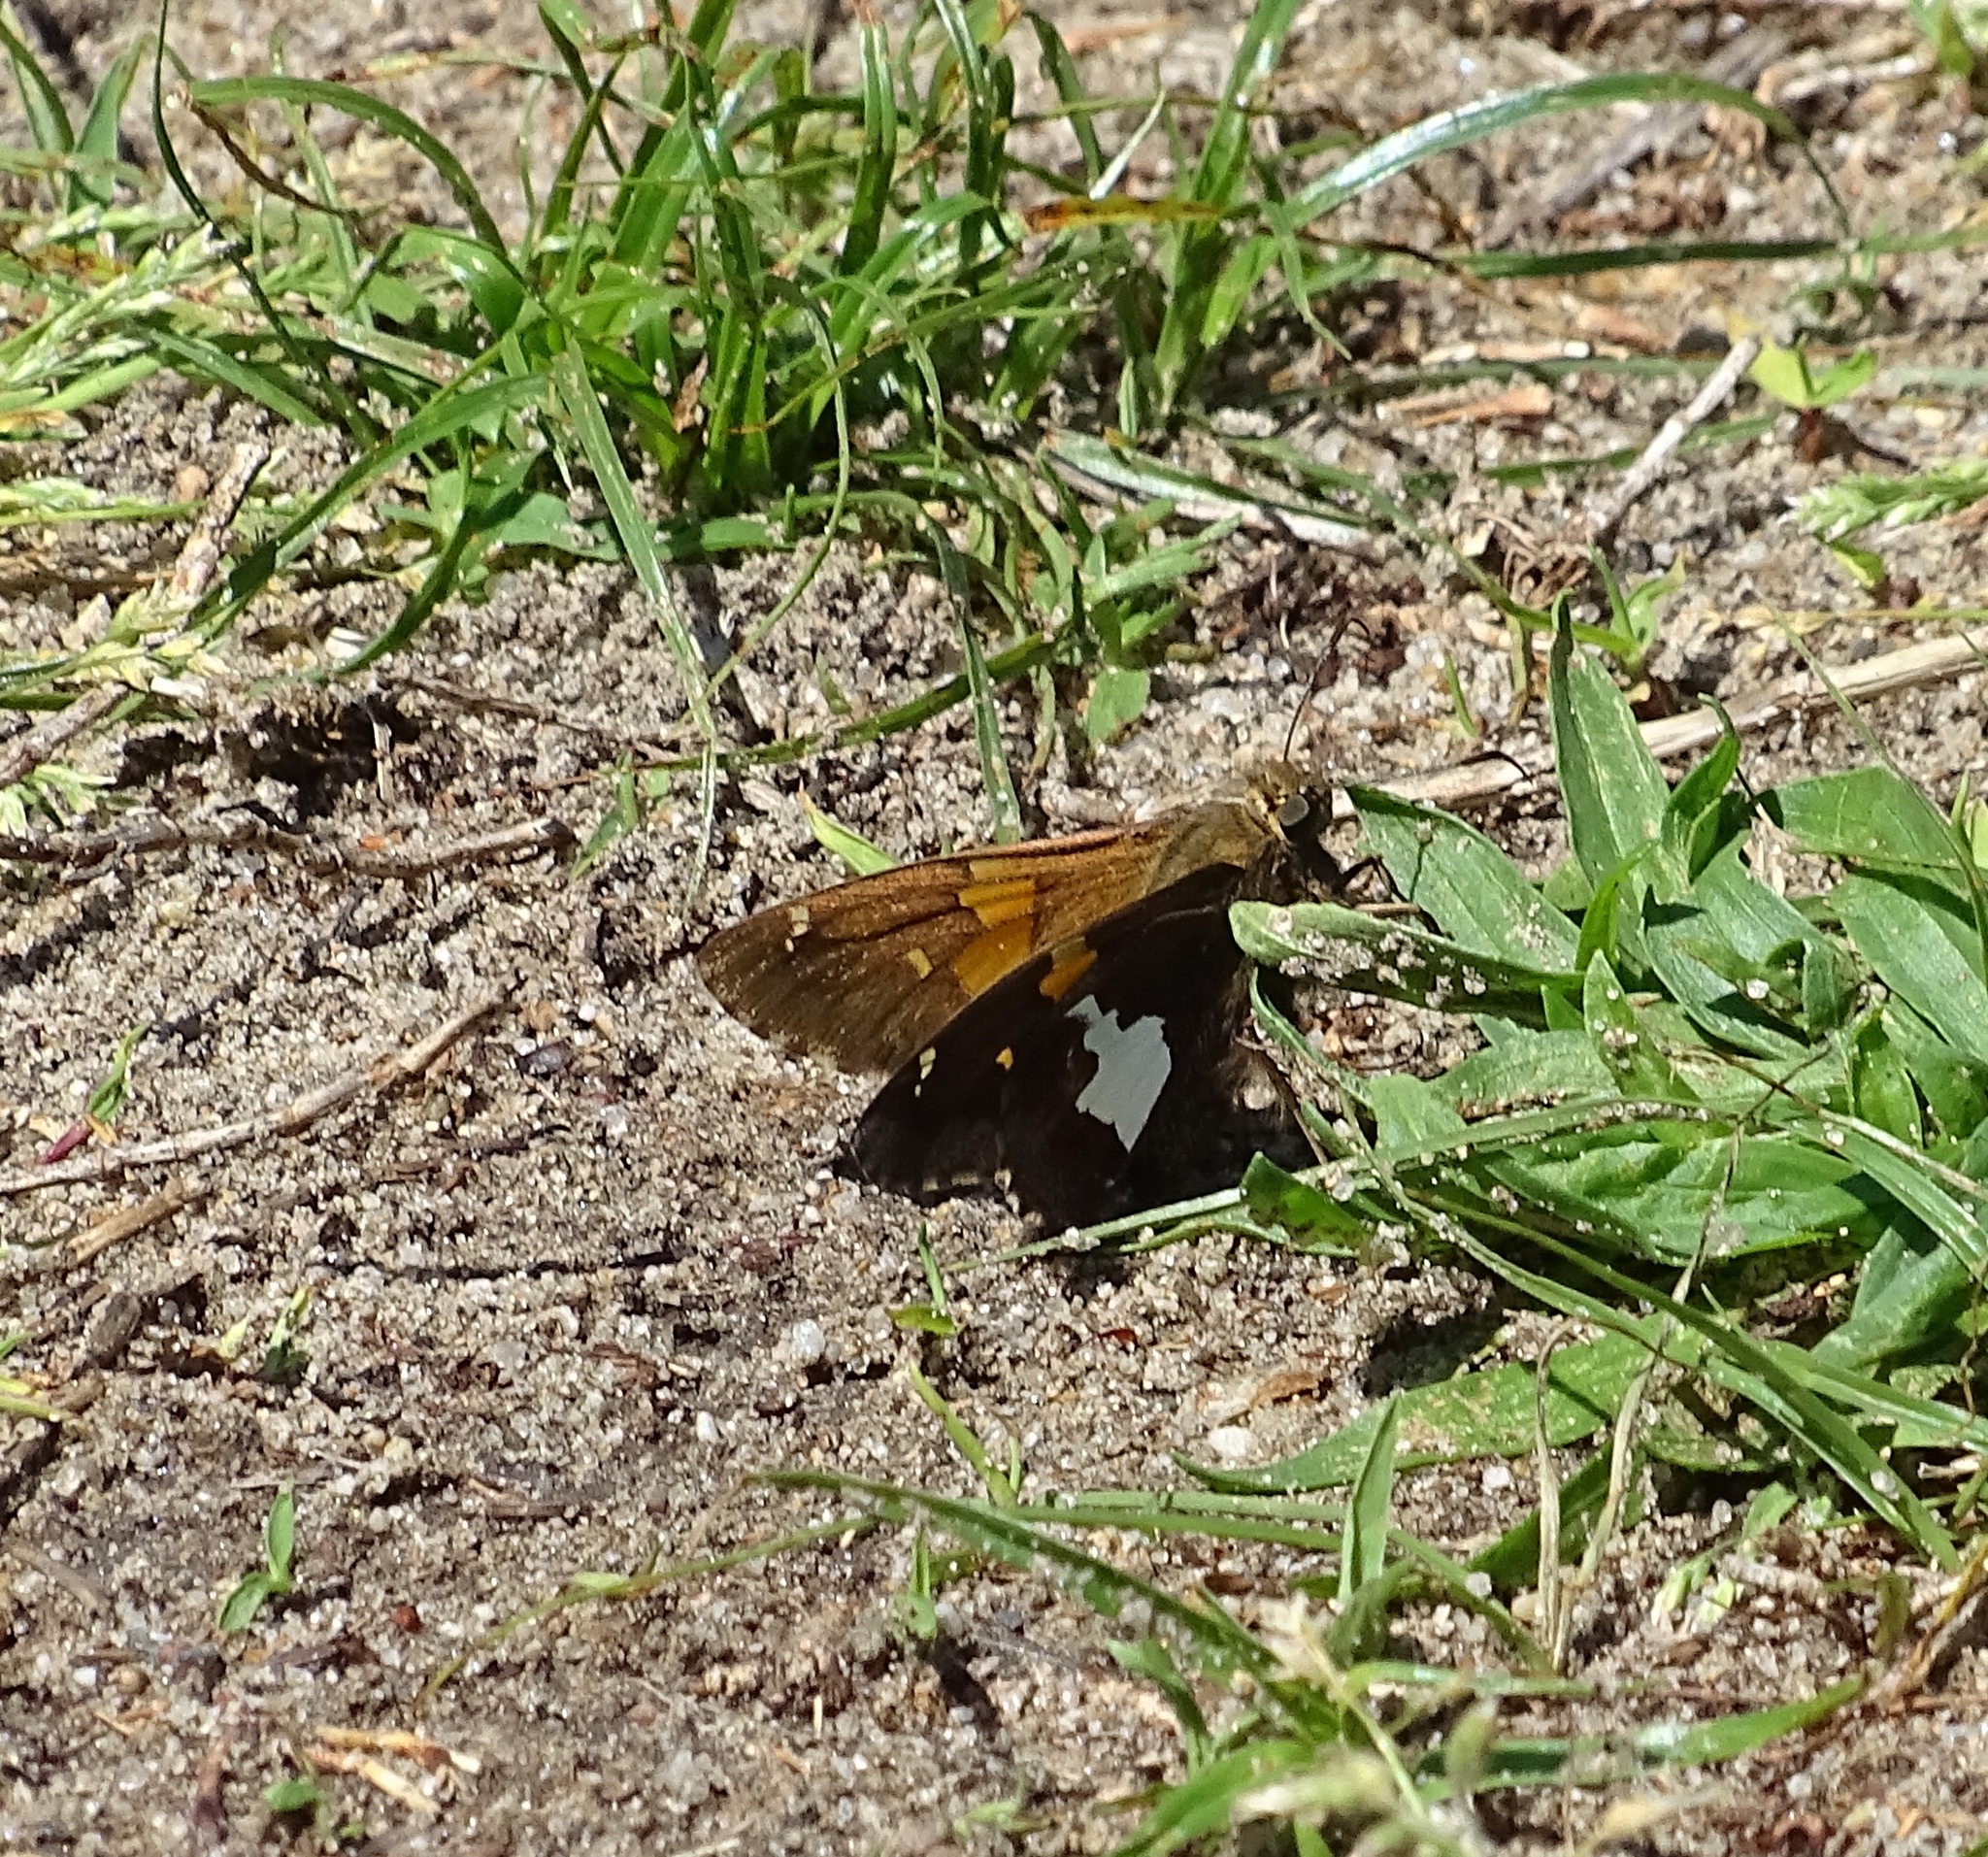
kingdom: Animalia
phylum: Arthropoda
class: Insecta
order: Lepidoptera
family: Hesperiidae
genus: Epargyreus
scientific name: Epargyreus clarus
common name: Silver-spotted skipper
